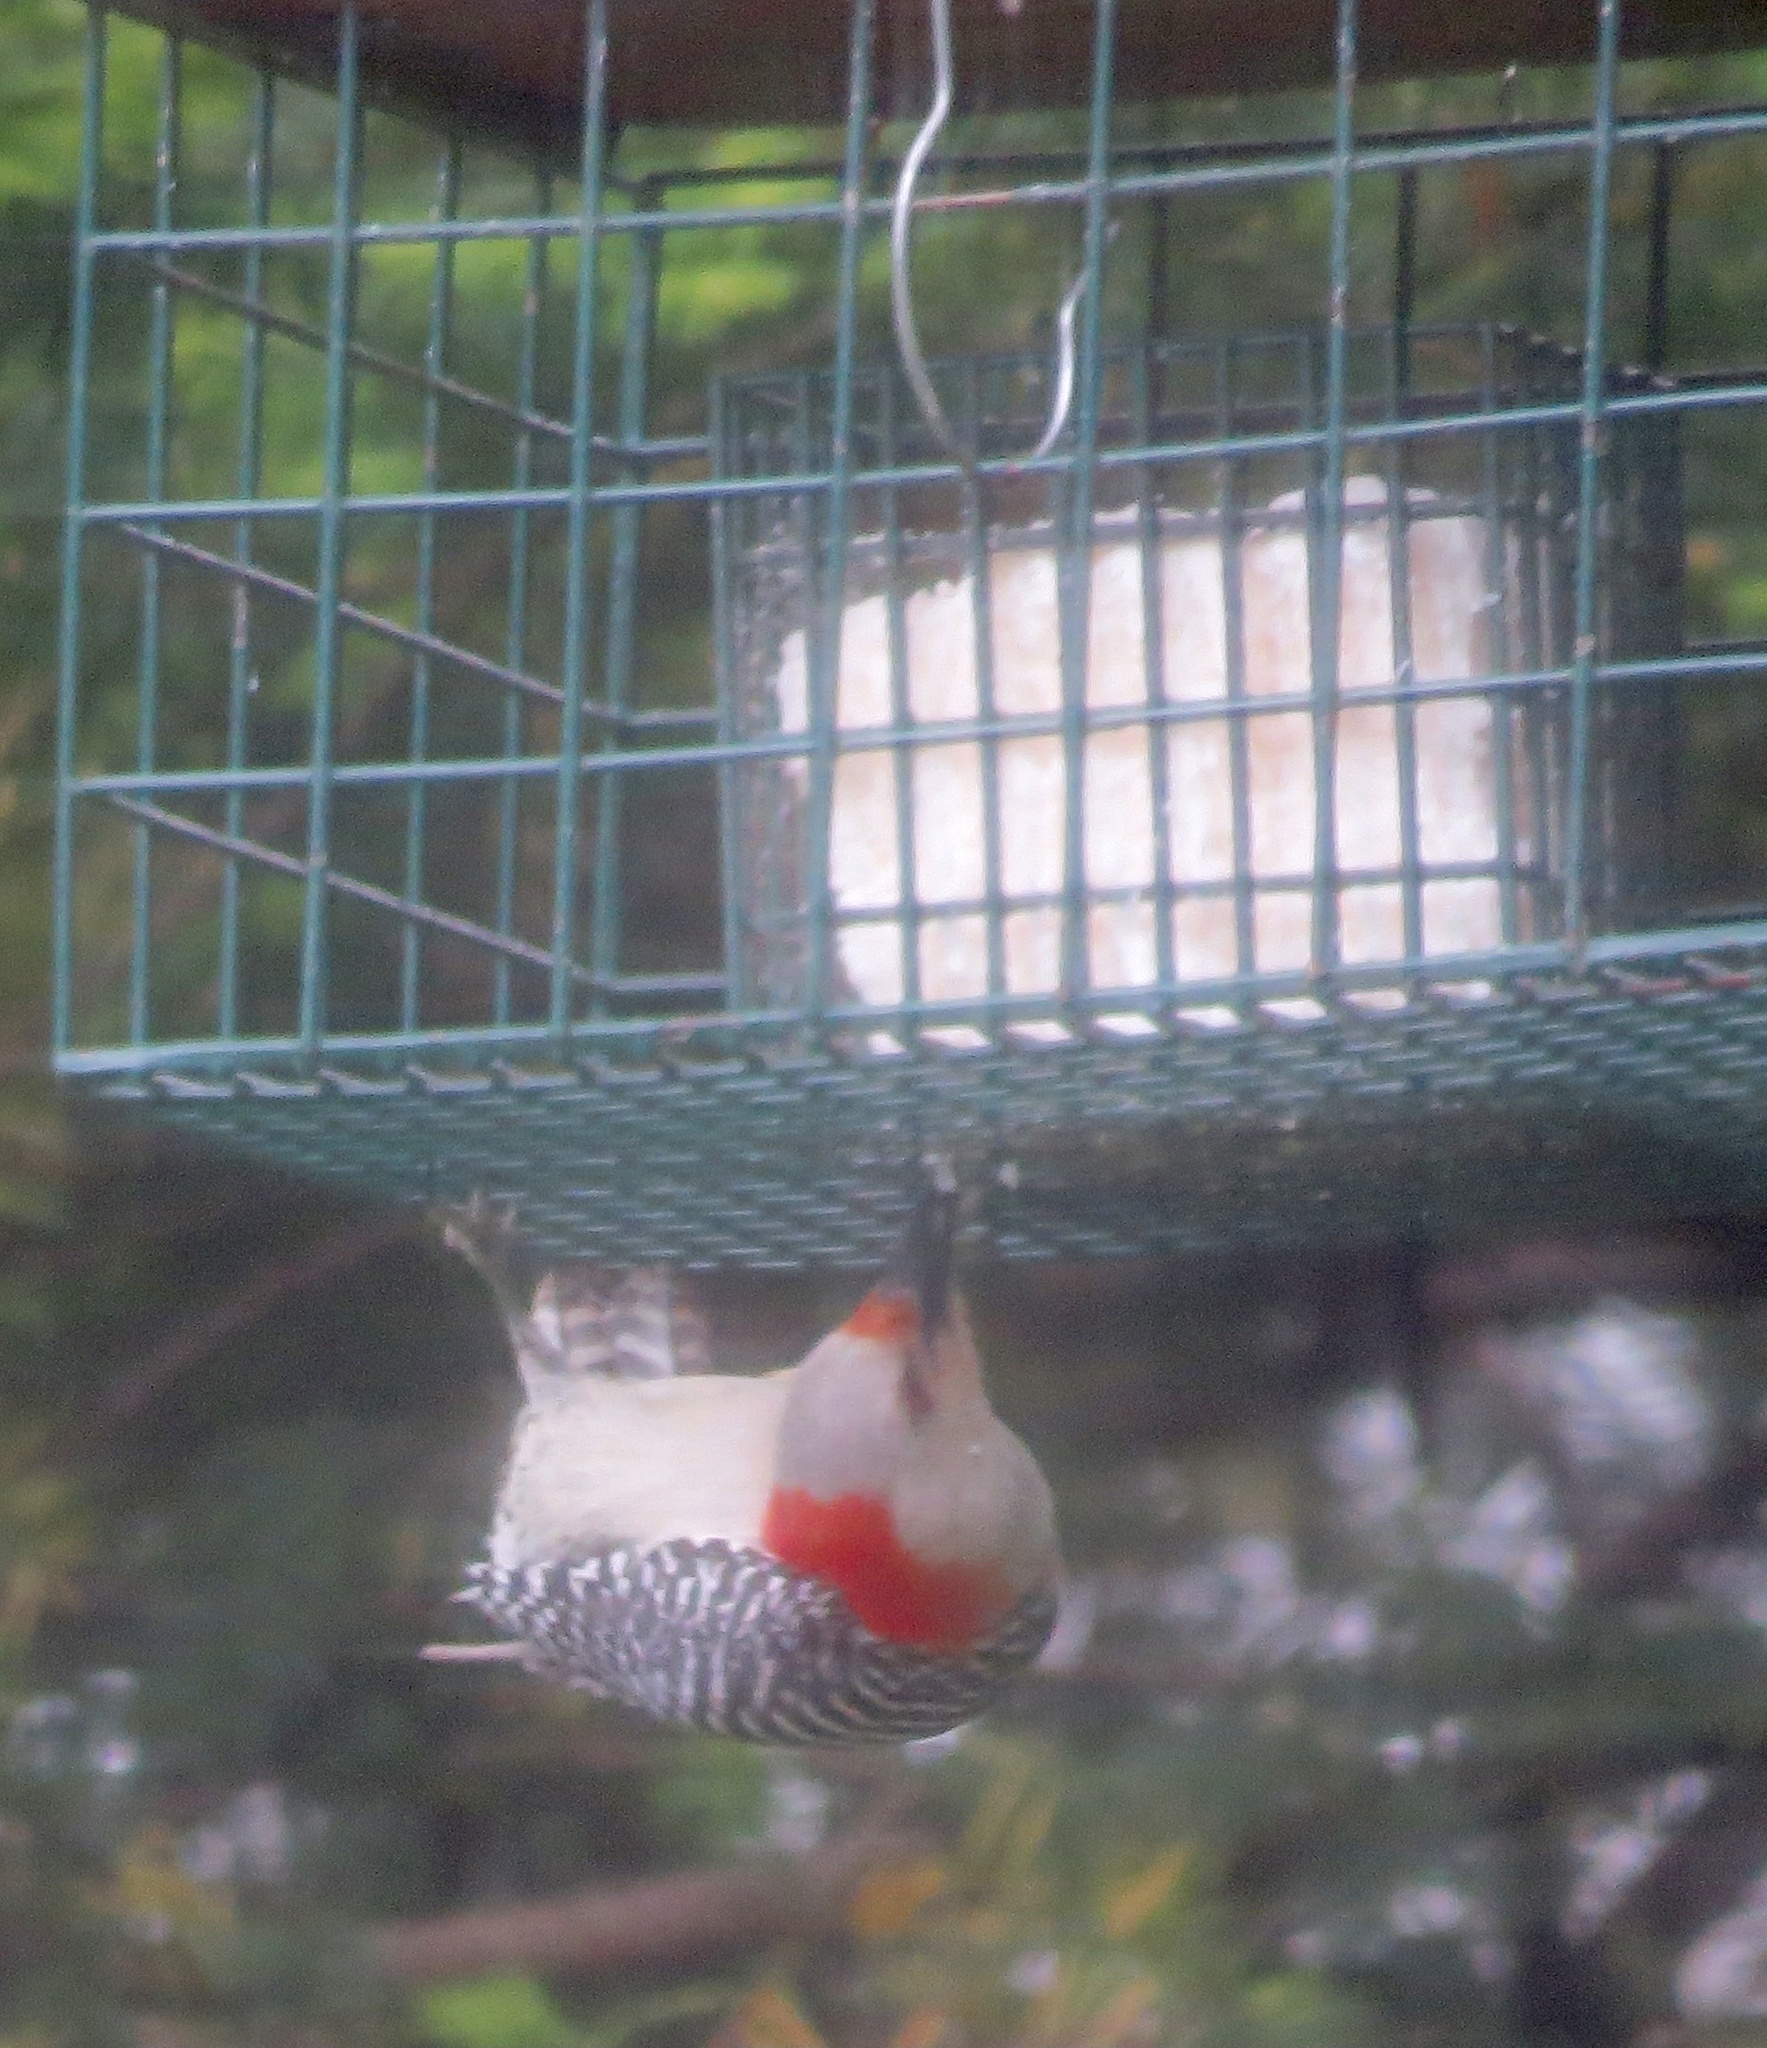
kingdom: Animalia
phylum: Chordata
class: Aves
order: Piciformes
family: Picidae
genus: Melanerpes
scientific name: Melanerpes carolinus
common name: Red-bellied woodpecker
